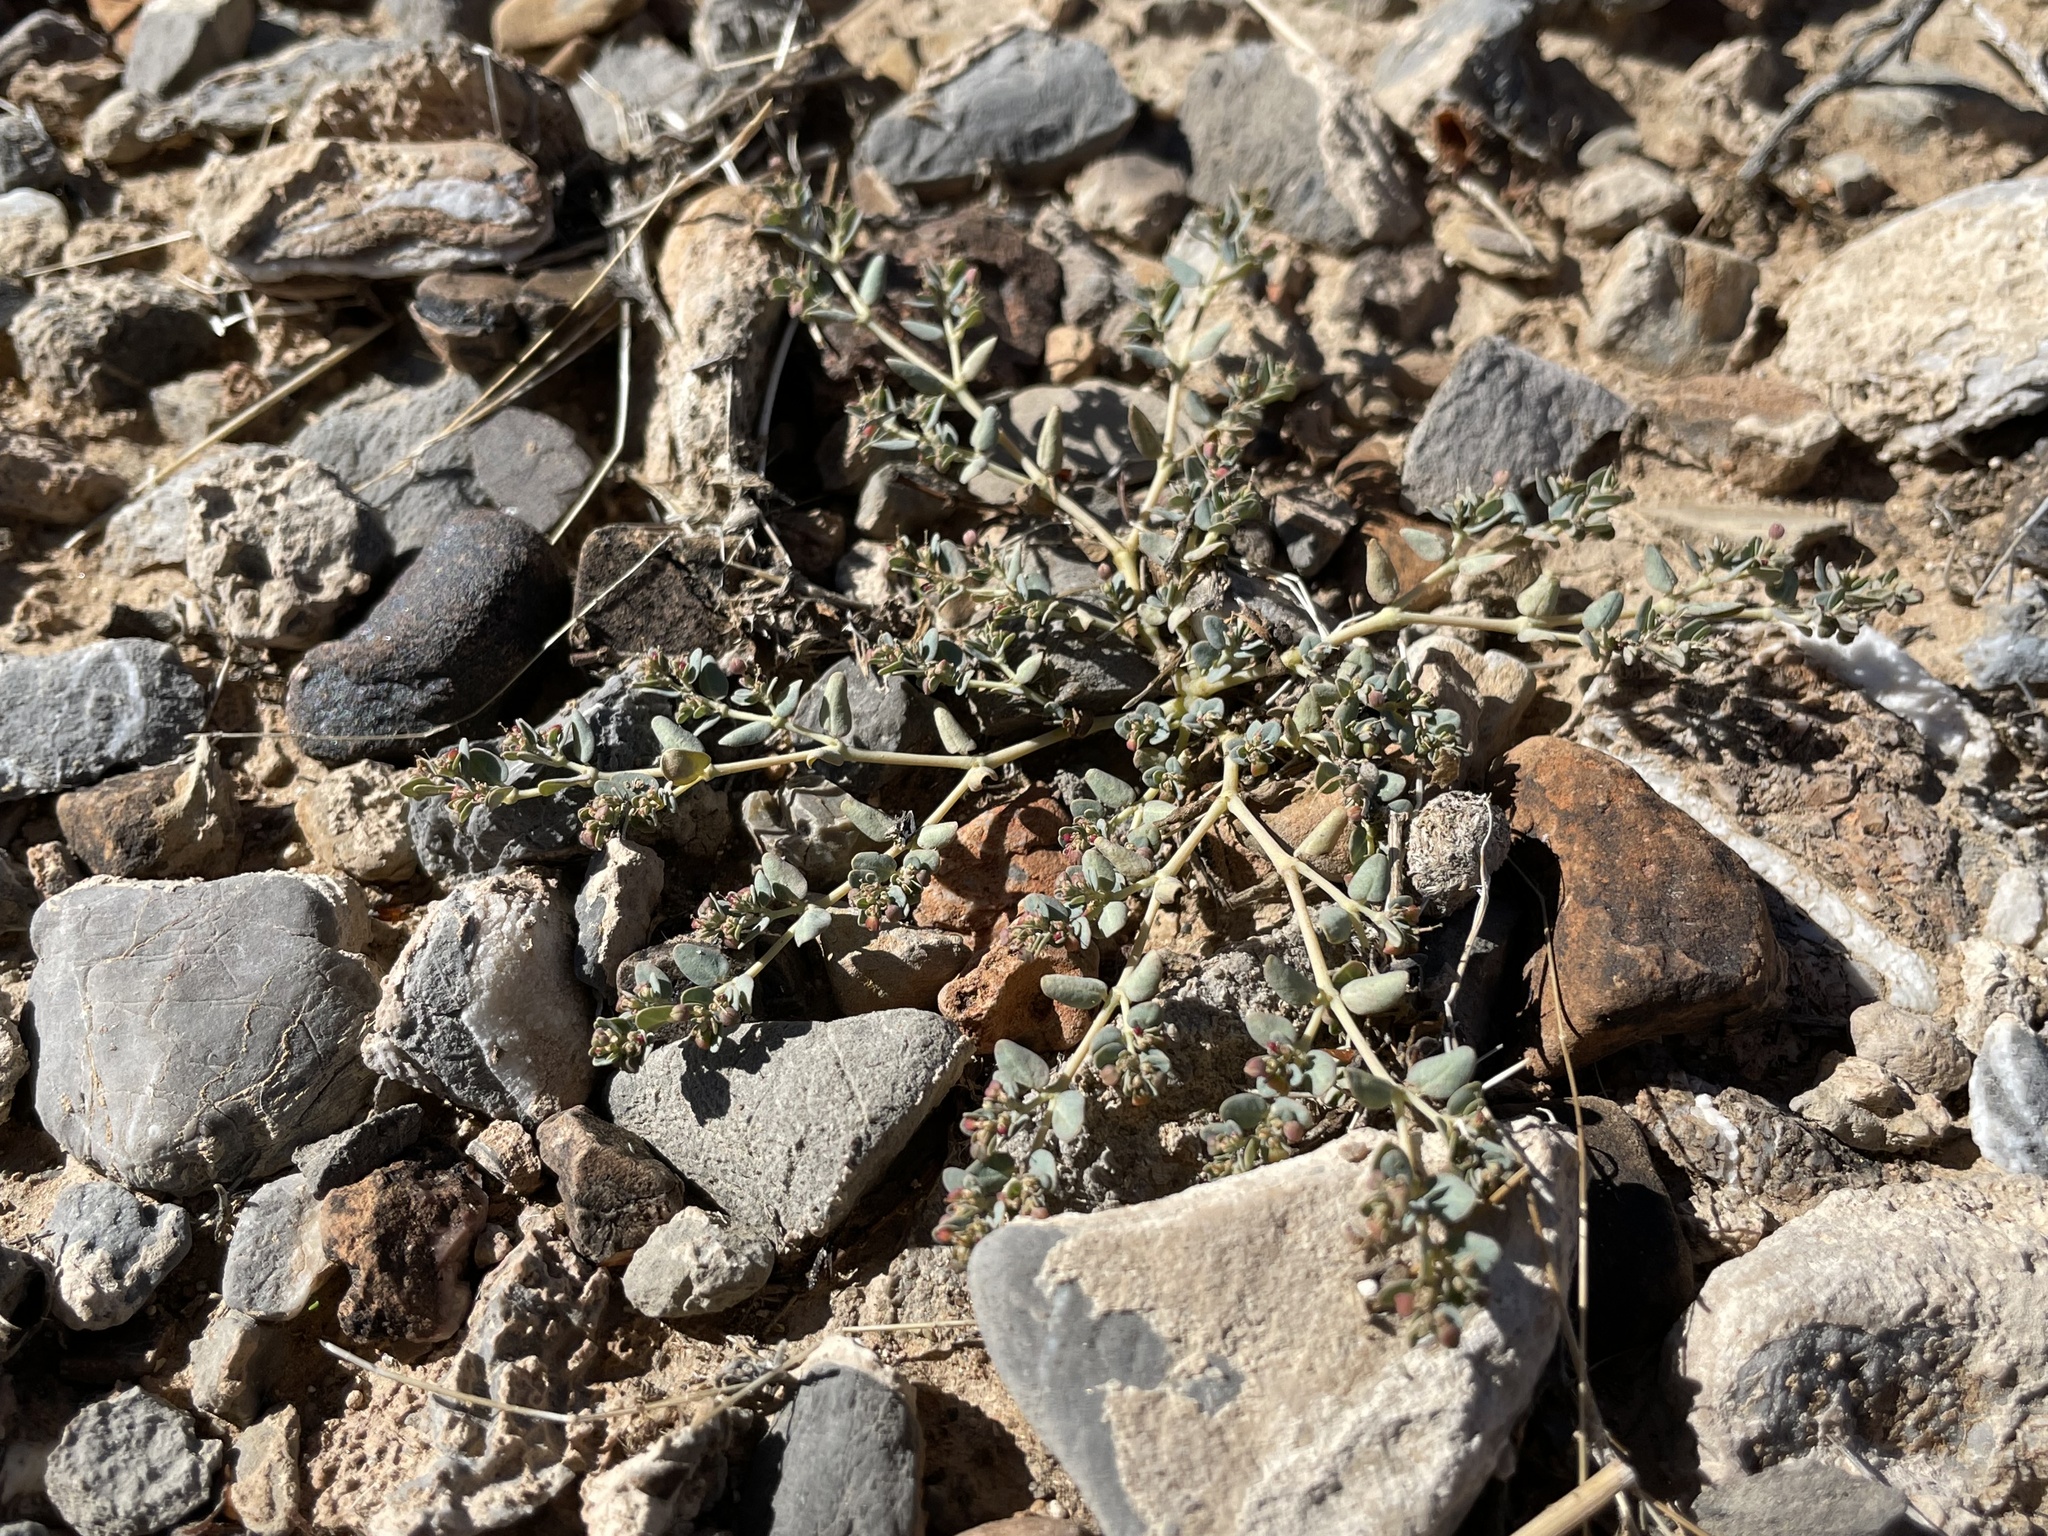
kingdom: Plantae
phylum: Tracheophyta
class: Magnoliopsida
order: Malpighiales
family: Euphorbiaceae
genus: Euphorbia
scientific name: Euphorbia micromera
